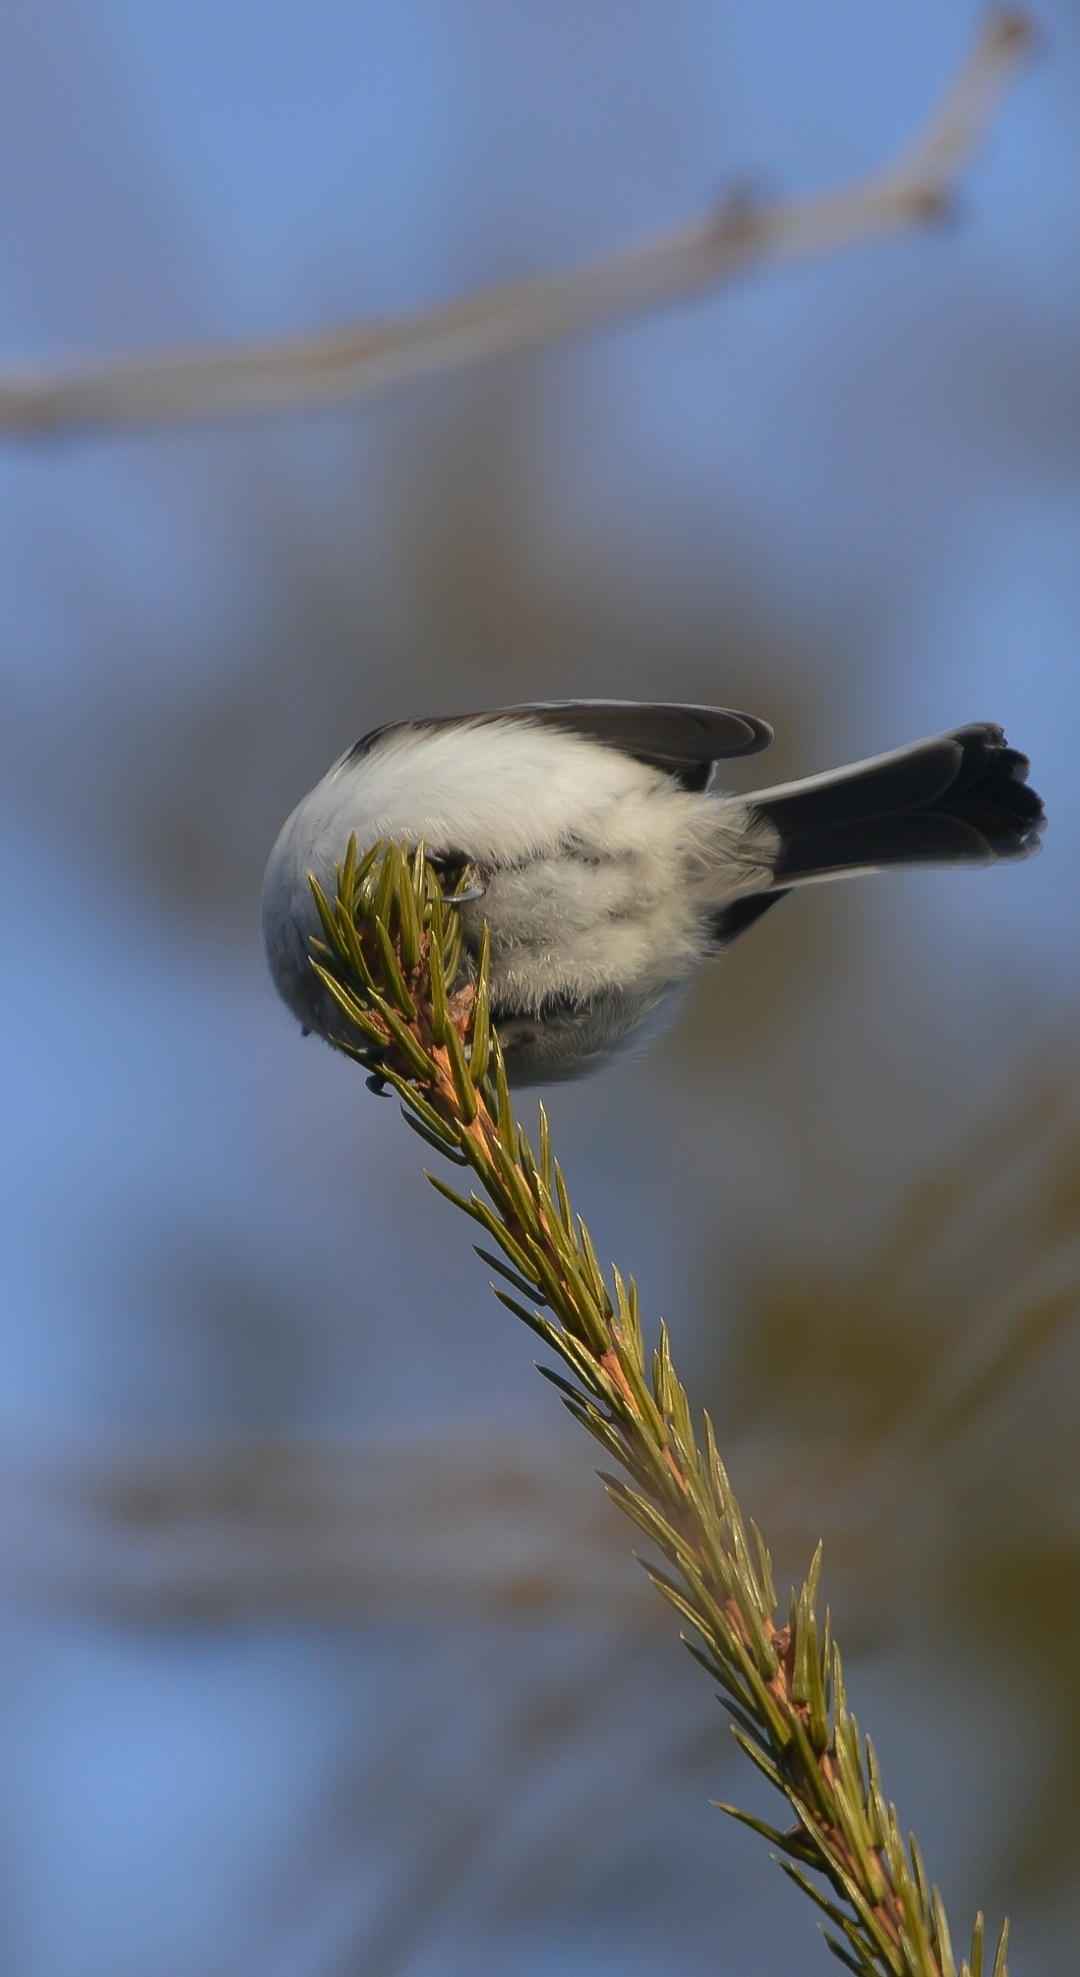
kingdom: Animalia
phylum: Chordata
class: Aves
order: Passeriformes
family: Paridae
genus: Poecile
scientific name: Poecile montanus
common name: Willow tit
